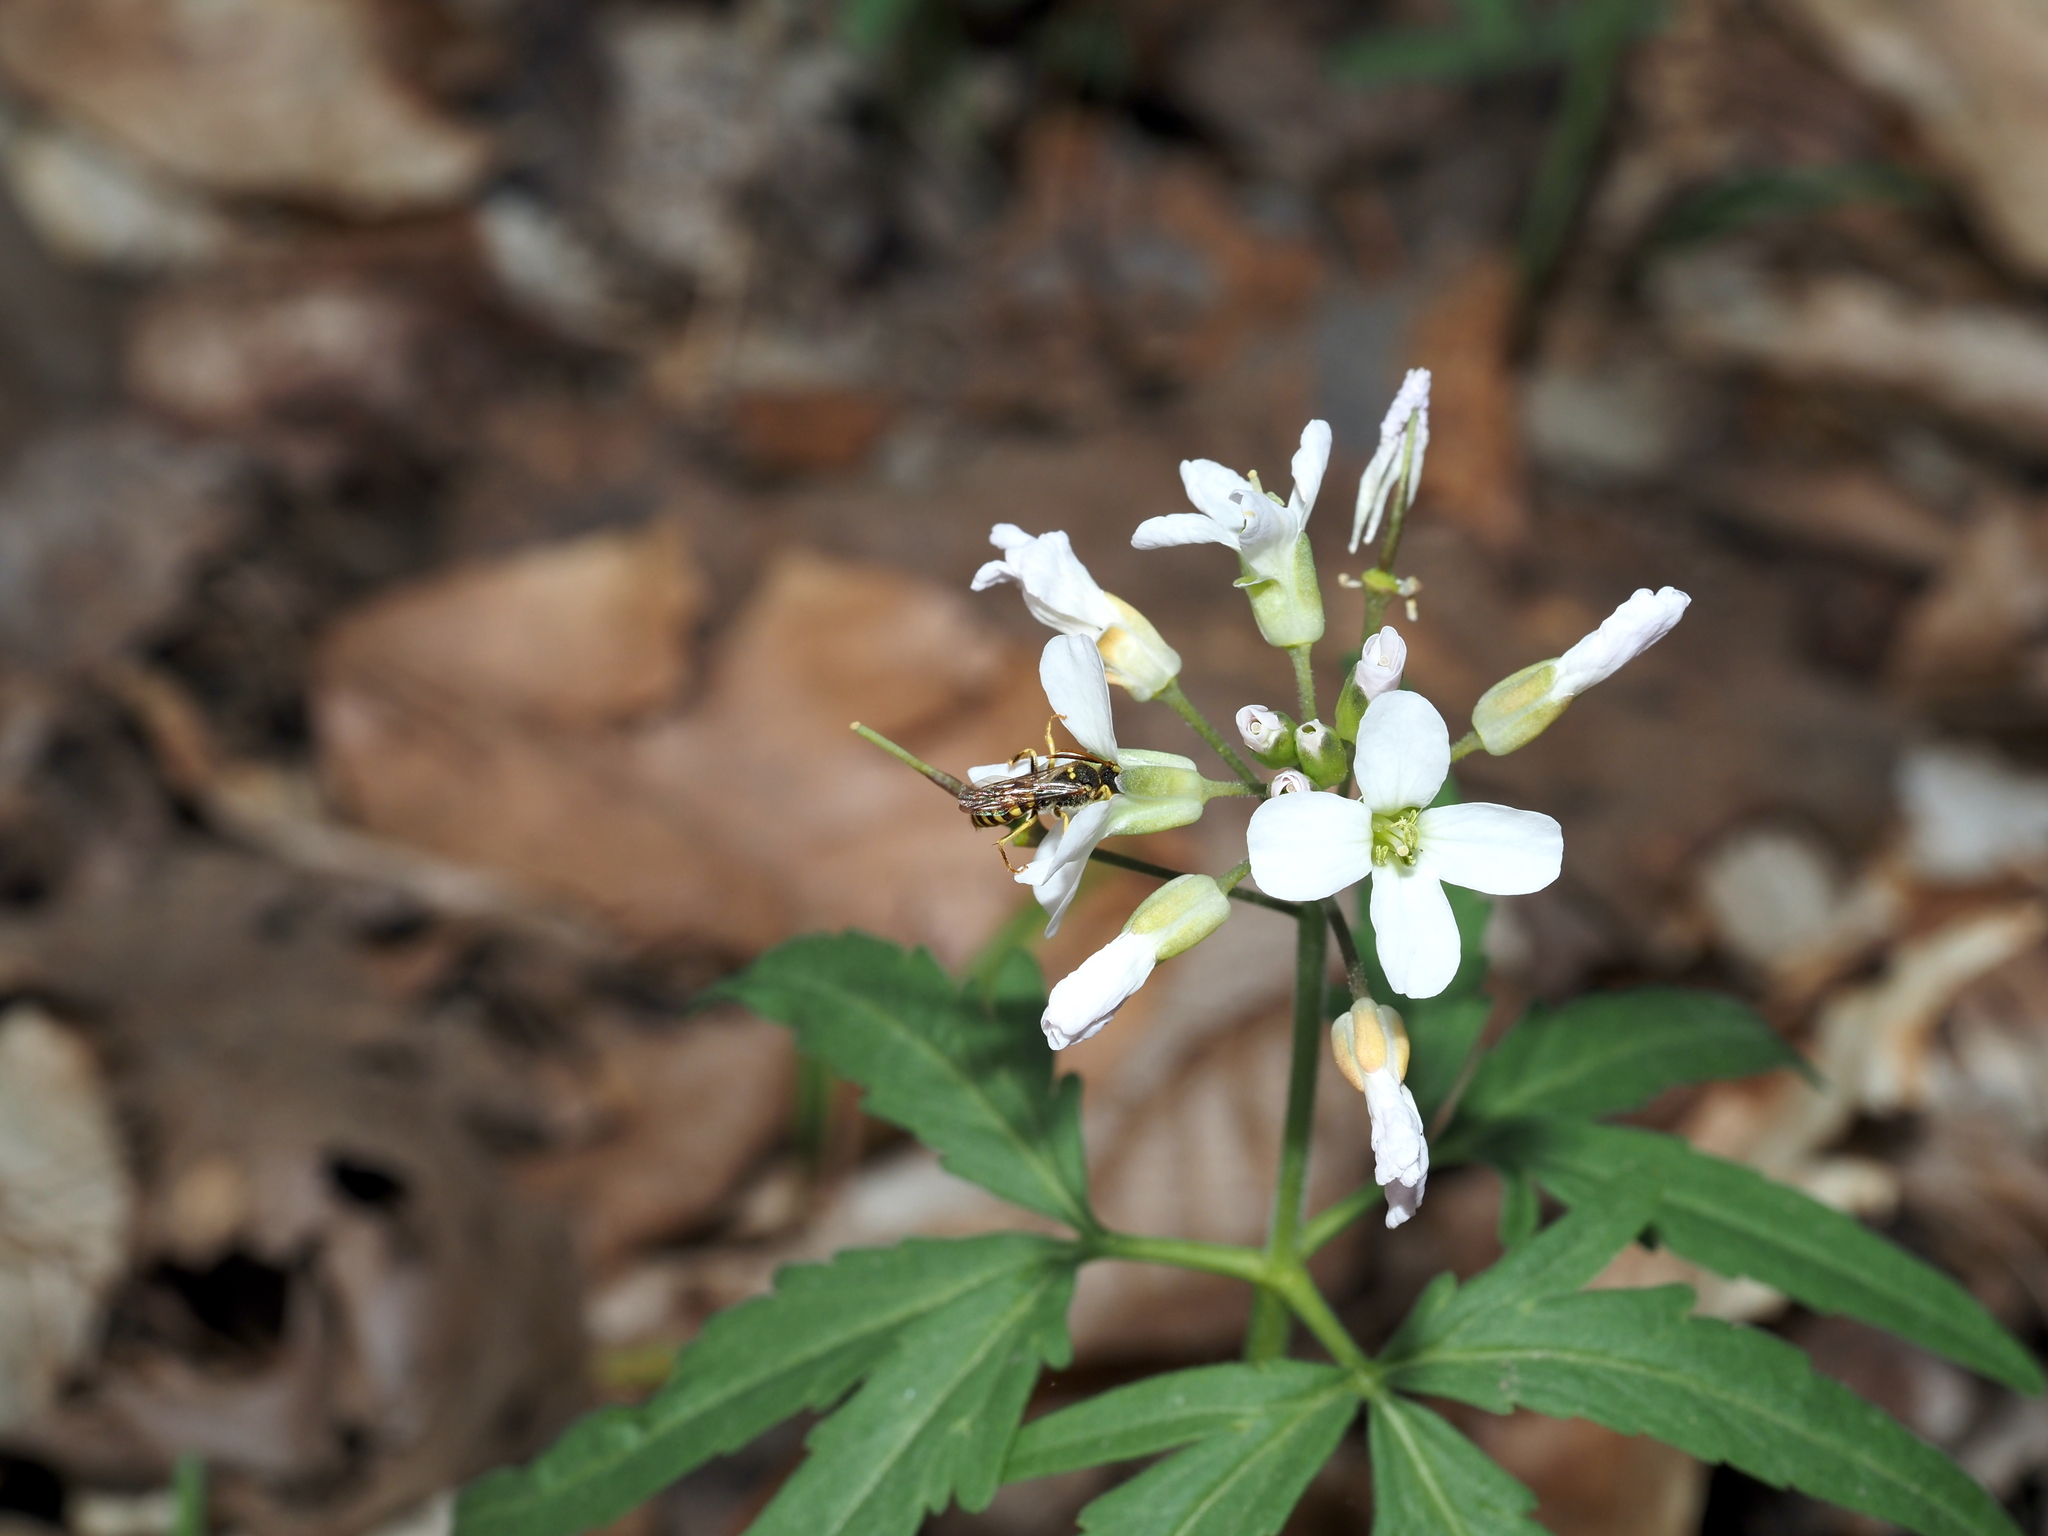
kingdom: Plantae
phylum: Tracheophyta
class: Magnoliopsida
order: Brassicales
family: Brassicaceae
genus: Cardamine
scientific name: Cardamine concatenata
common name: Cut-leaf toothcup
